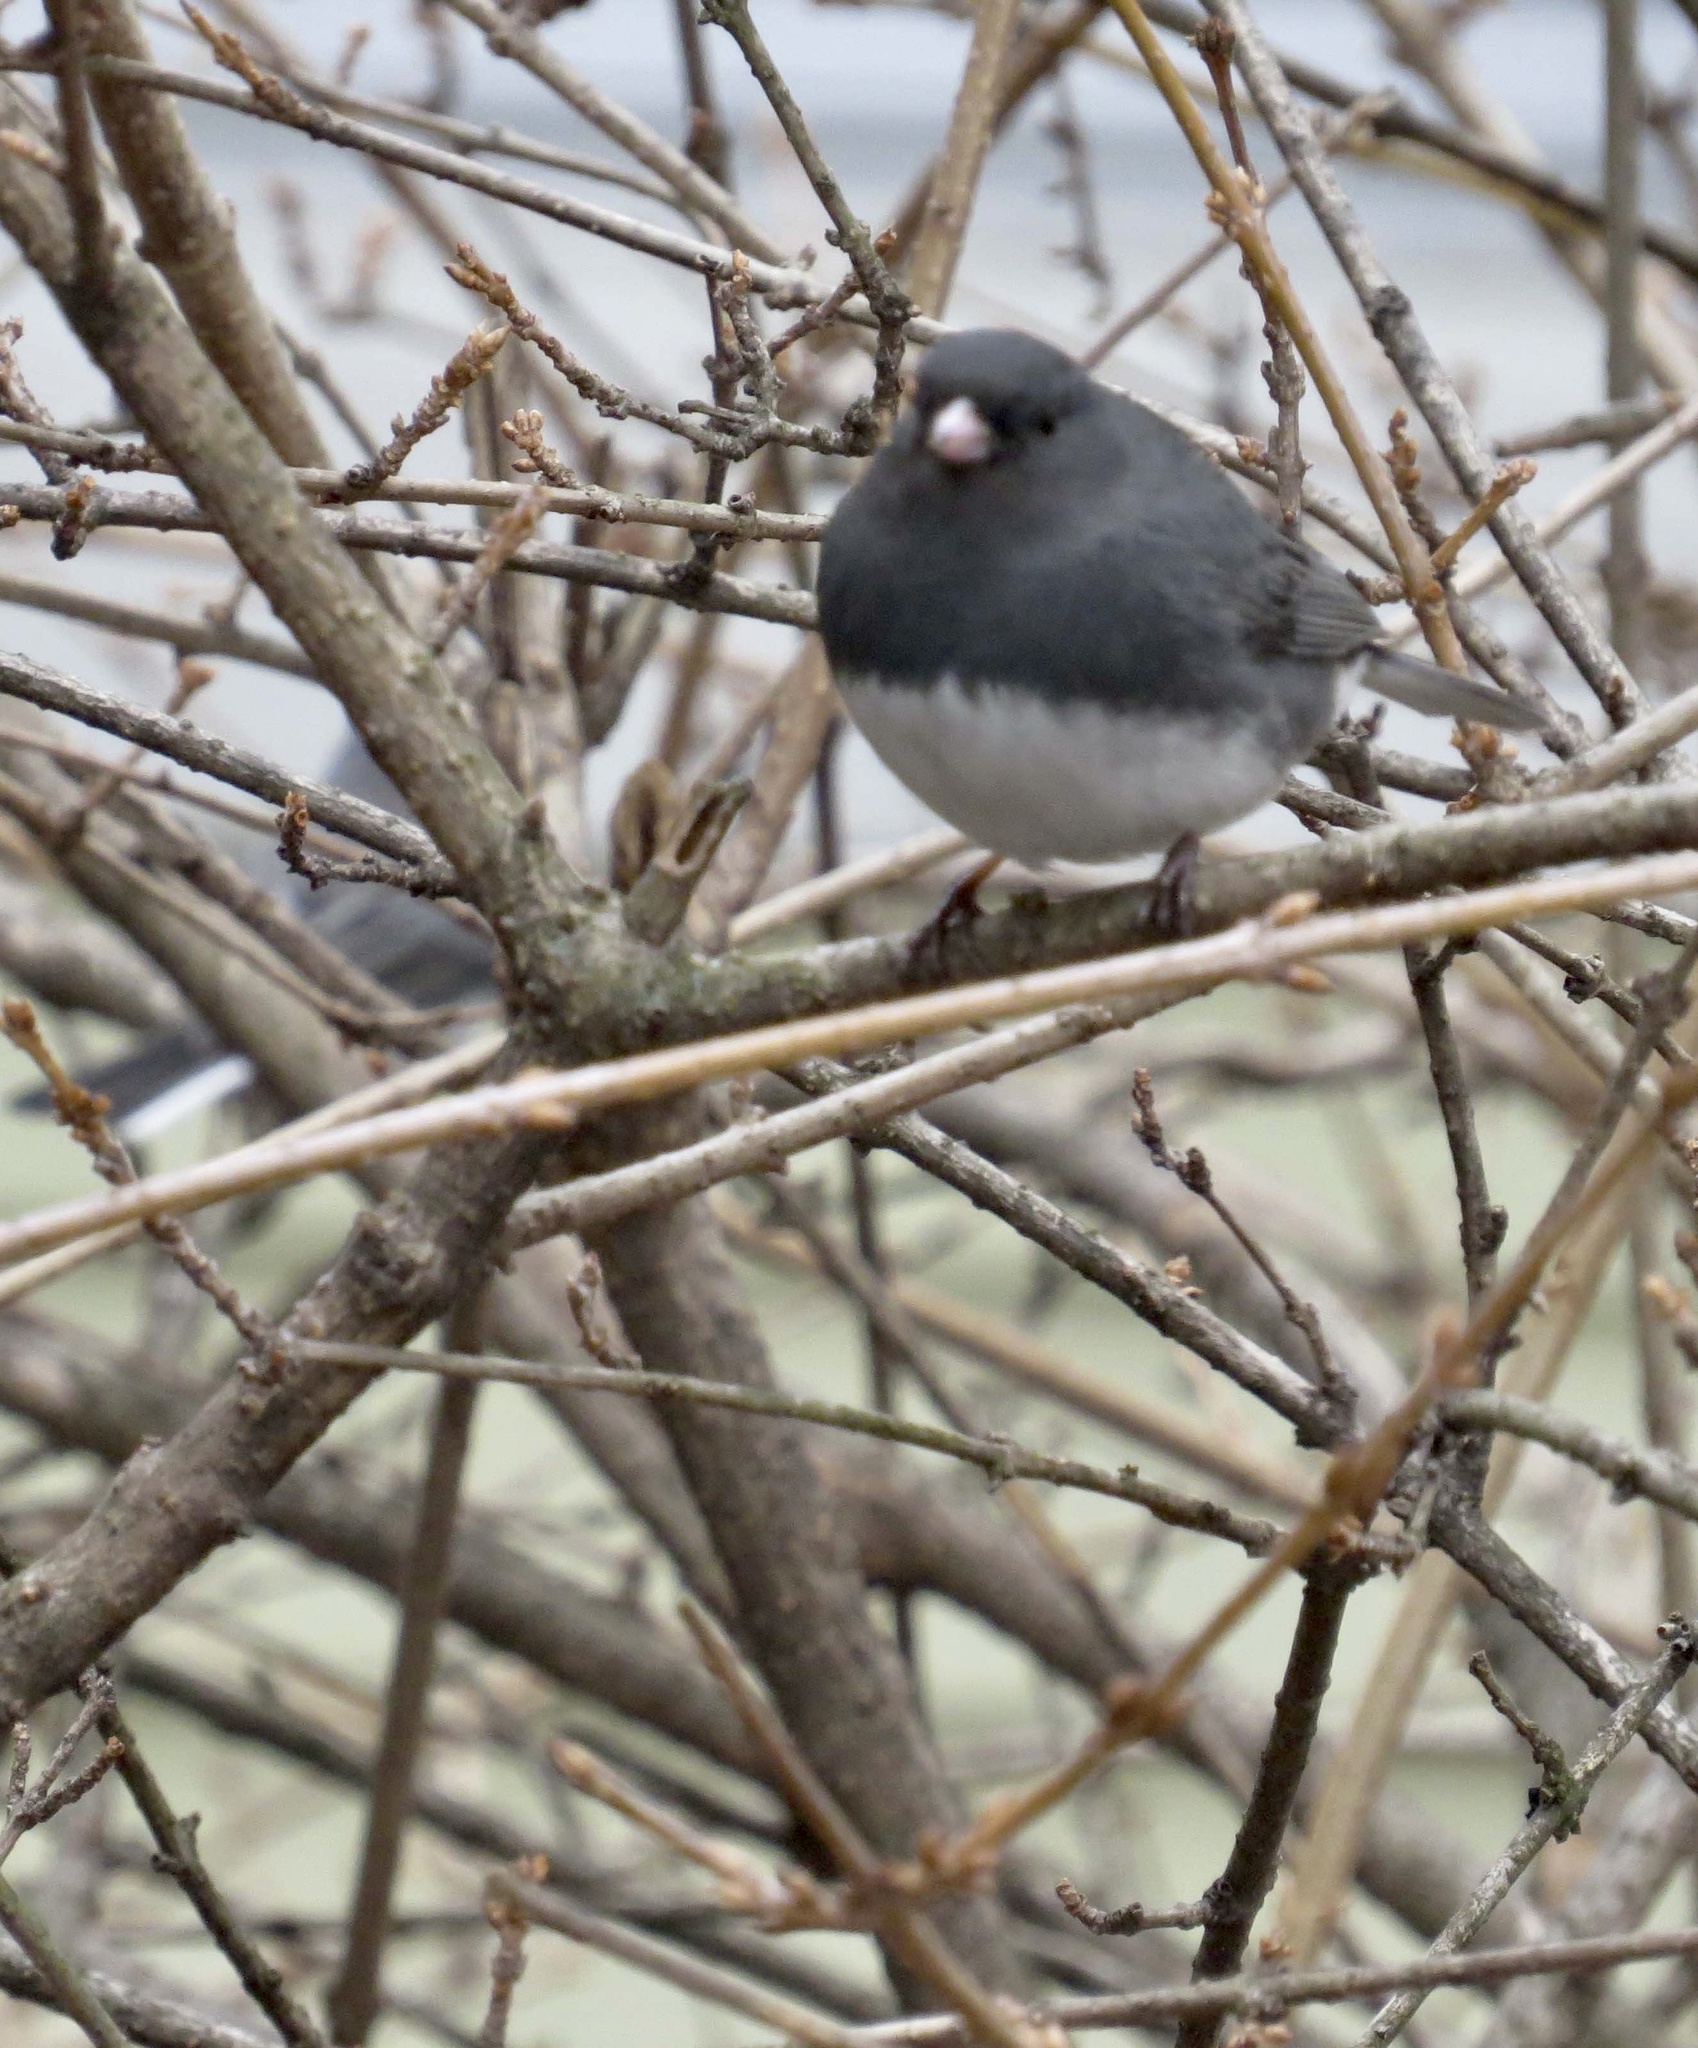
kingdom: Animalia
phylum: Chordata
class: Aves
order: Passeriformes
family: Passerellidae
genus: Junco
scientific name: Junco hyemalis
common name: Dark-eyed junco
